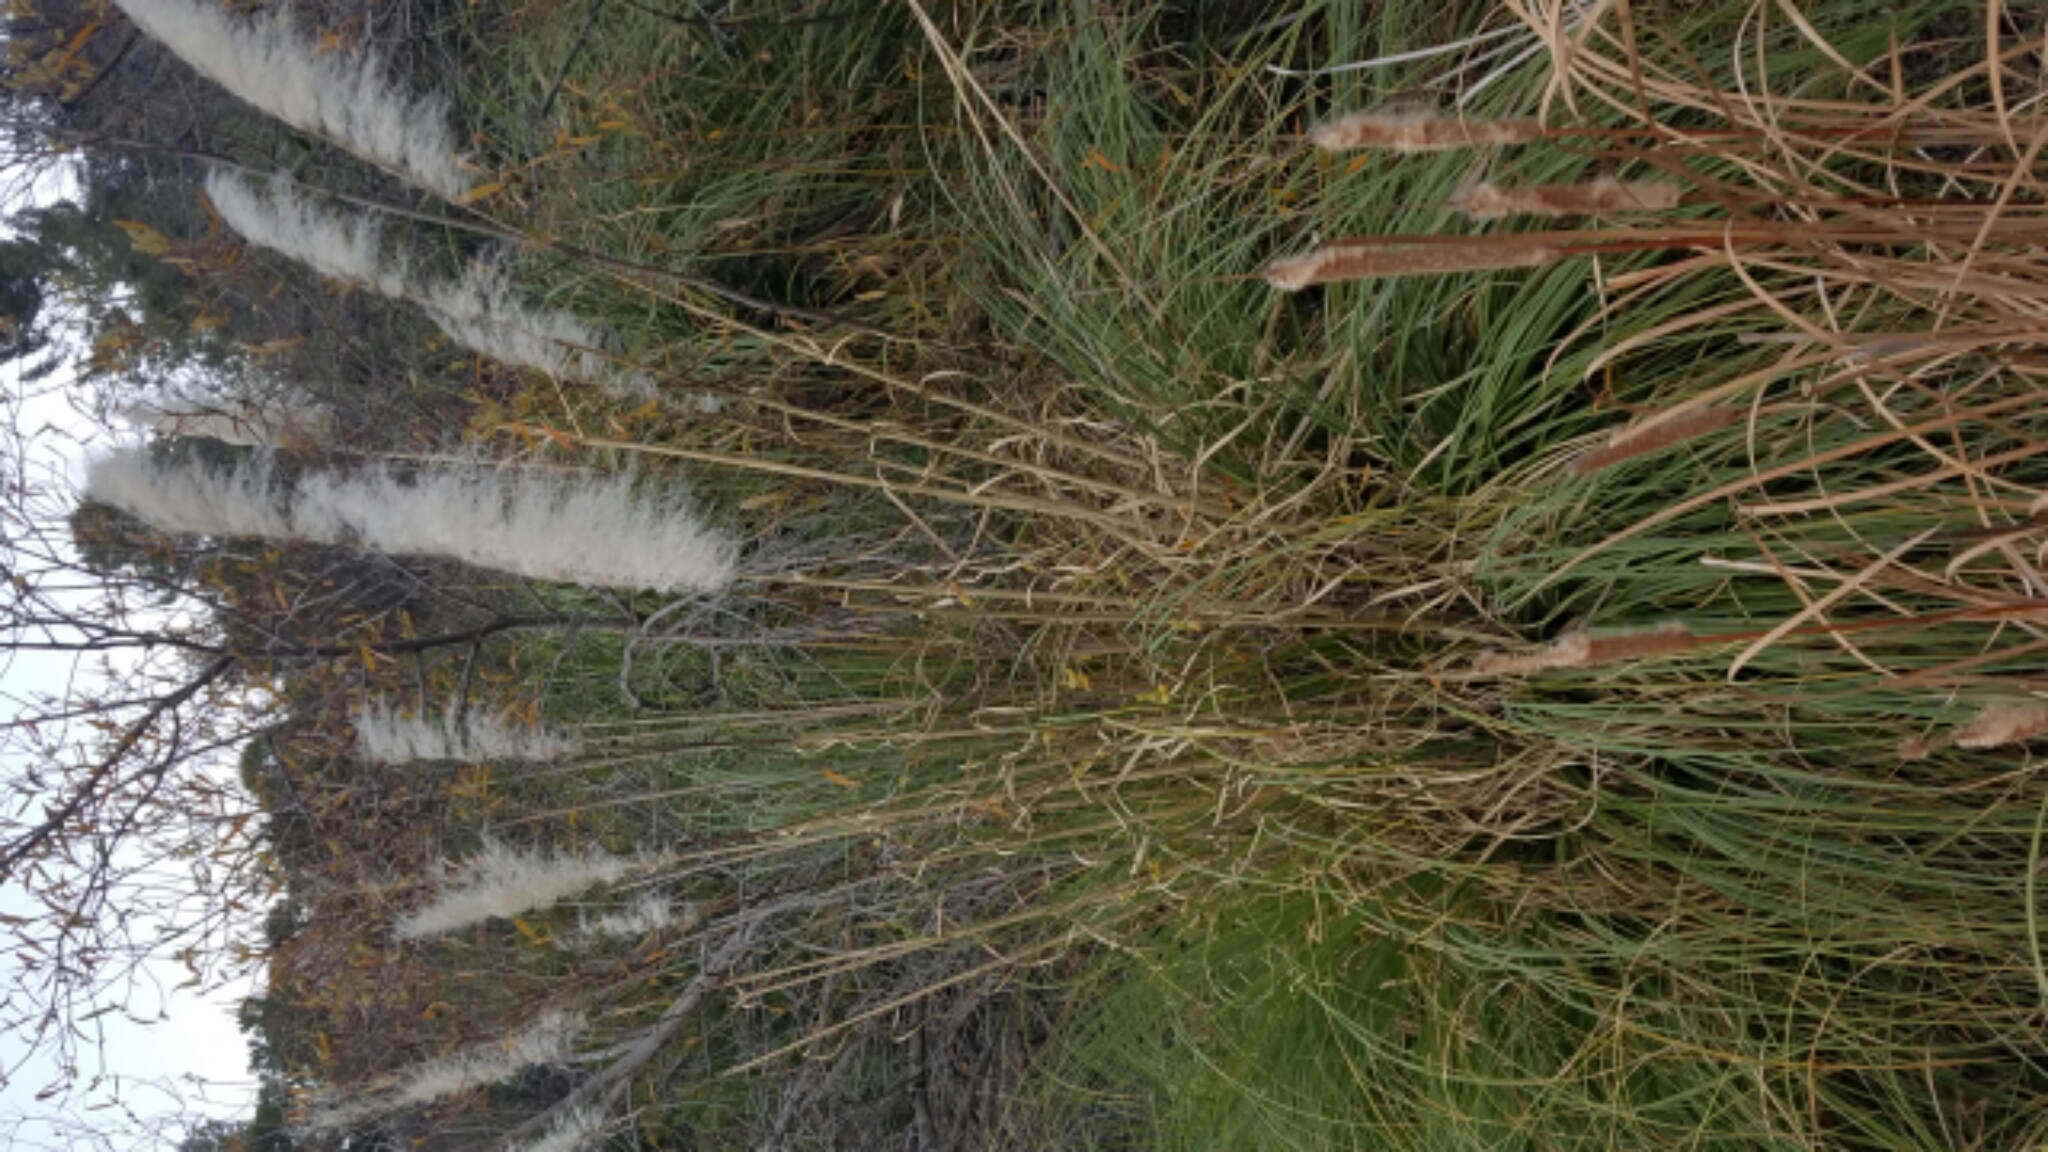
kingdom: Plantae
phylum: Tracheophyta
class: Liliopsida
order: Poales
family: Poaceae
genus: Cortaderia
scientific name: Cortaderia selloana
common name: Uruguayan pampas grass
